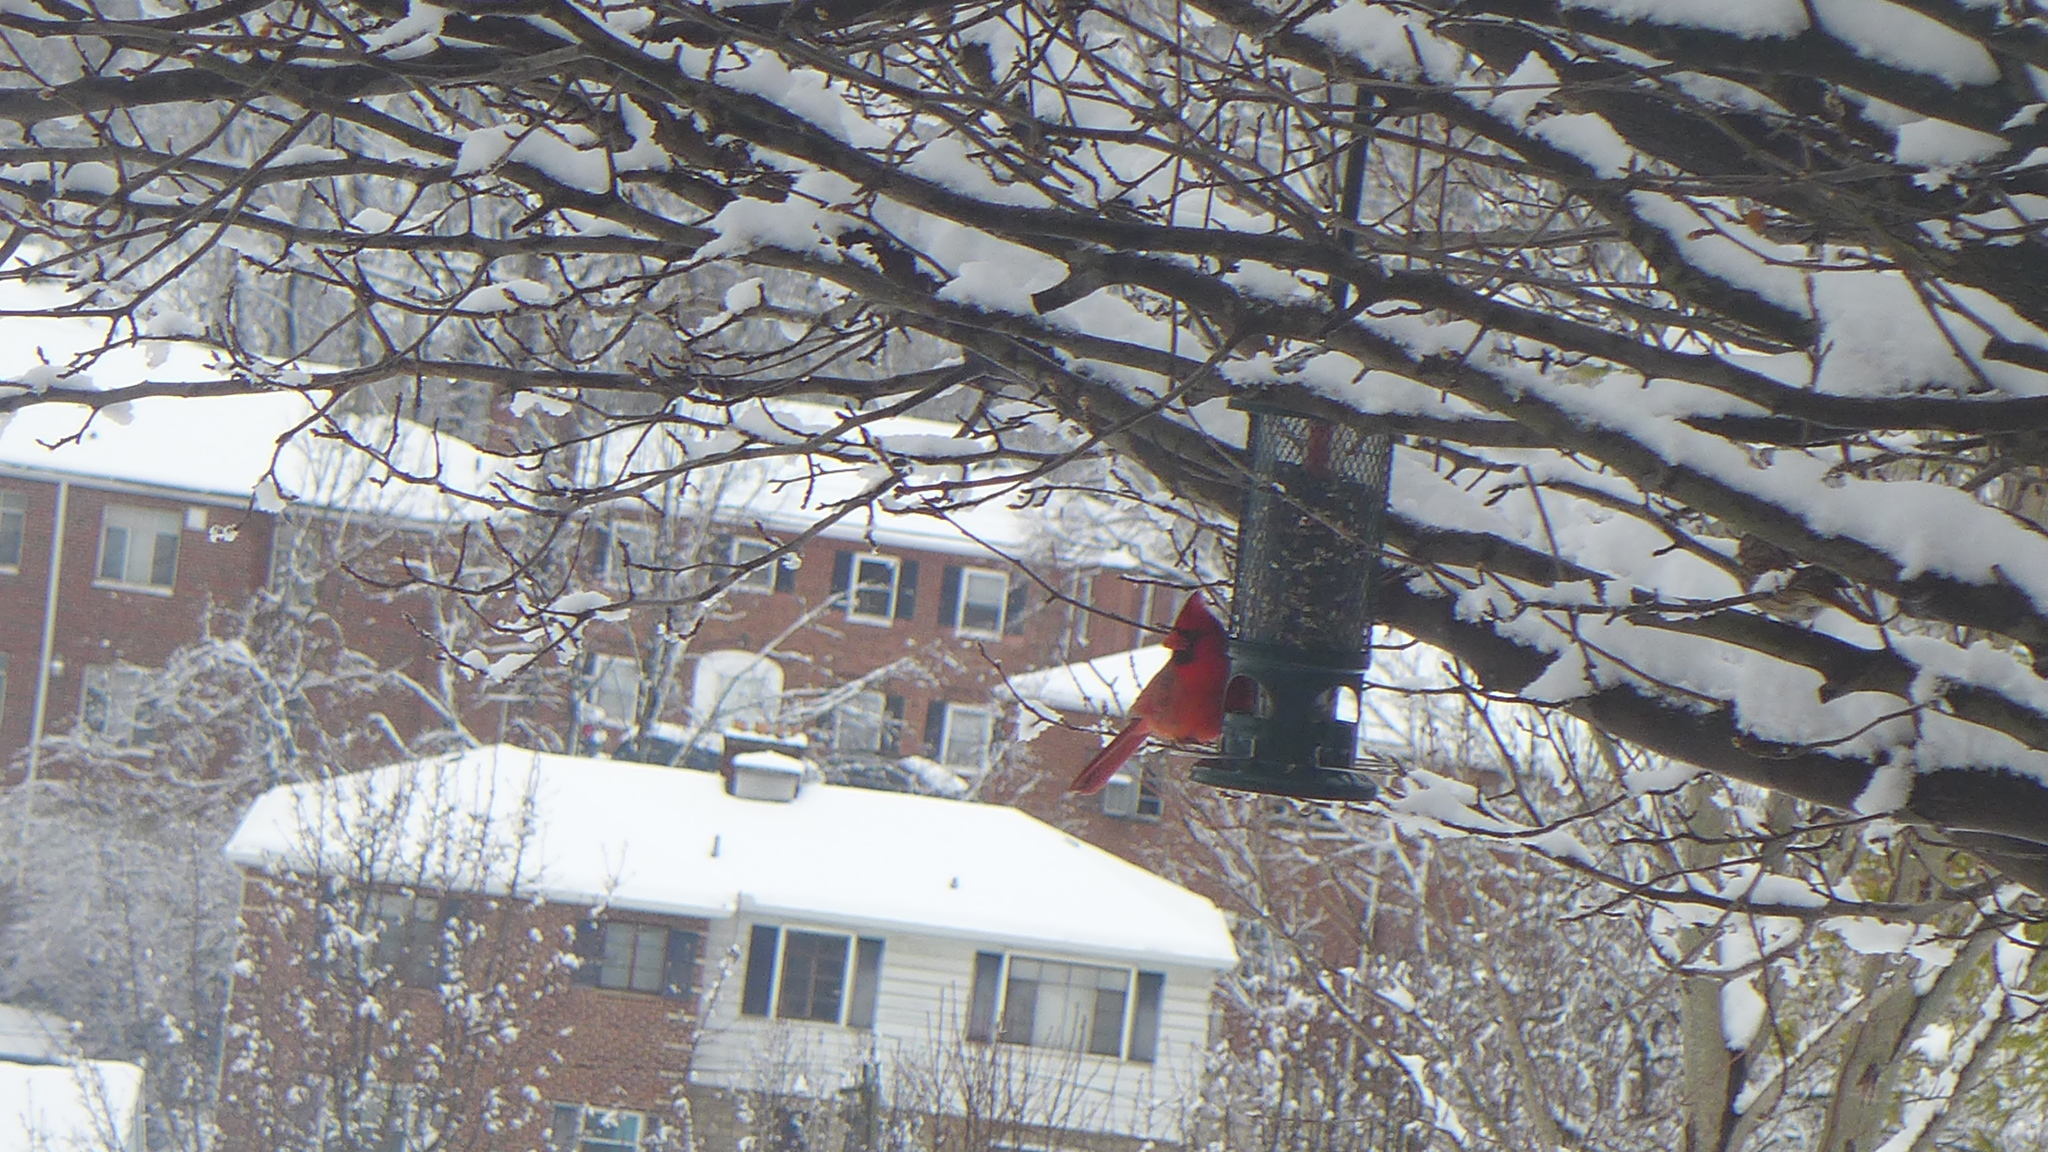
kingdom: Animalia
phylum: Chordata
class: Aves
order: Passeriformes
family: Cardinalidae
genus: Cardinalis
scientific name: Cardinalis cardinalis
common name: Northern cardinal
